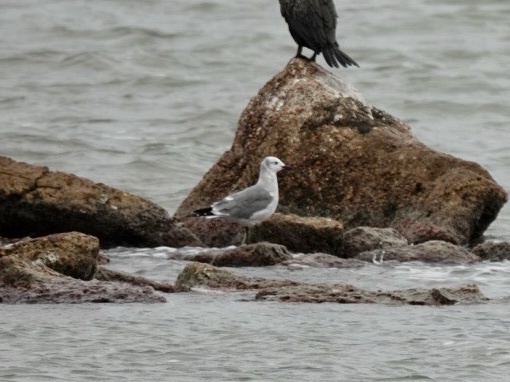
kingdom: Animalia
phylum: Chordata
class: Aves
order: Charadriiformes
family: Laridae
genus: Leucophaeus
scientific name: Leucophaeus atricilla
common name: Laughing gull
